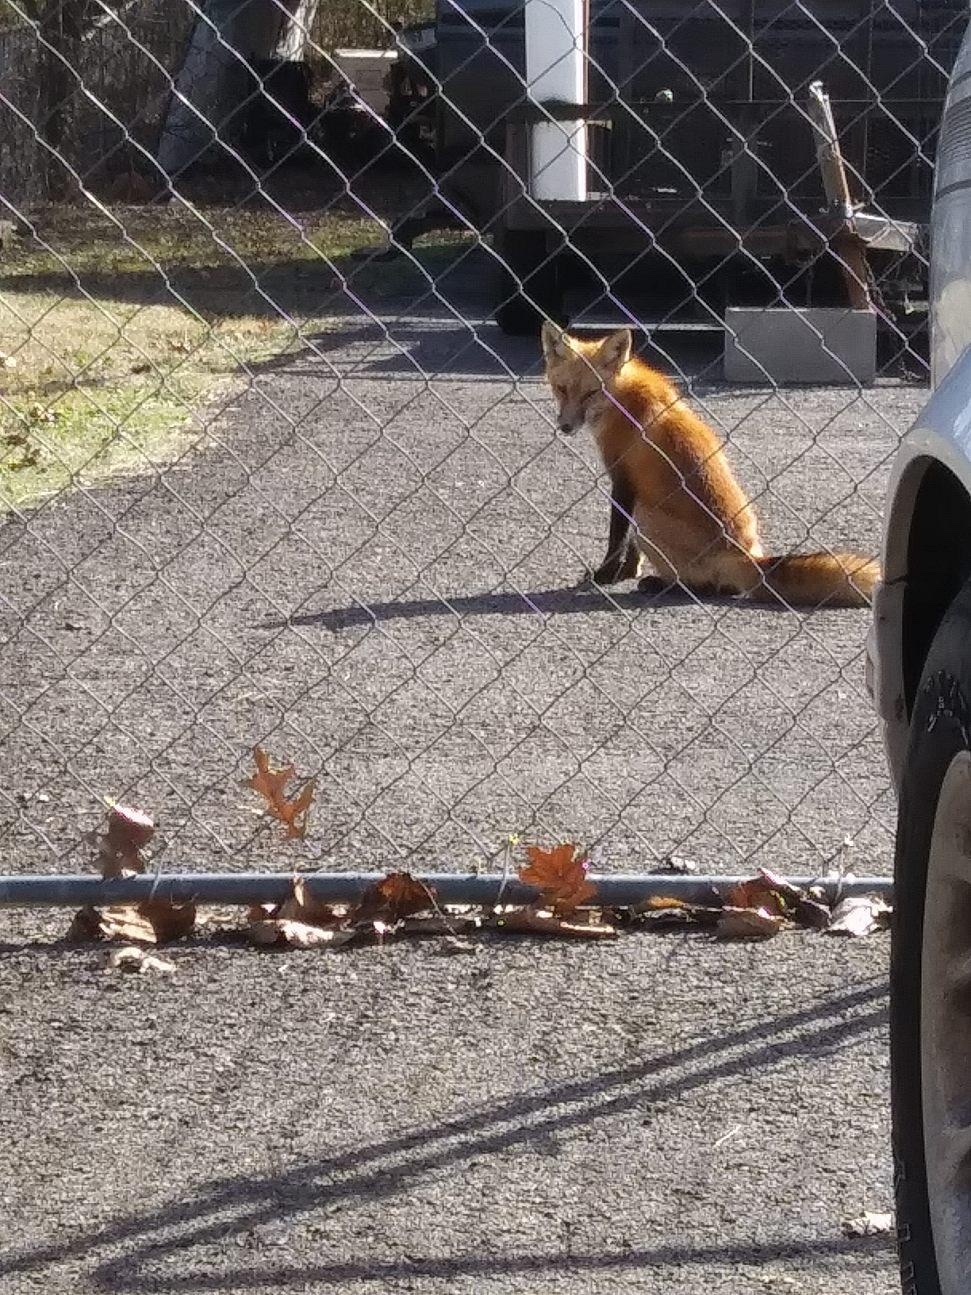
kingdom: Animalia
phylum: Chordata
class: Mammalia
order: Carnivora
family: Canidae
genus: Vulpes
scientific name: Vulpes vulpes
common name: Red fox
